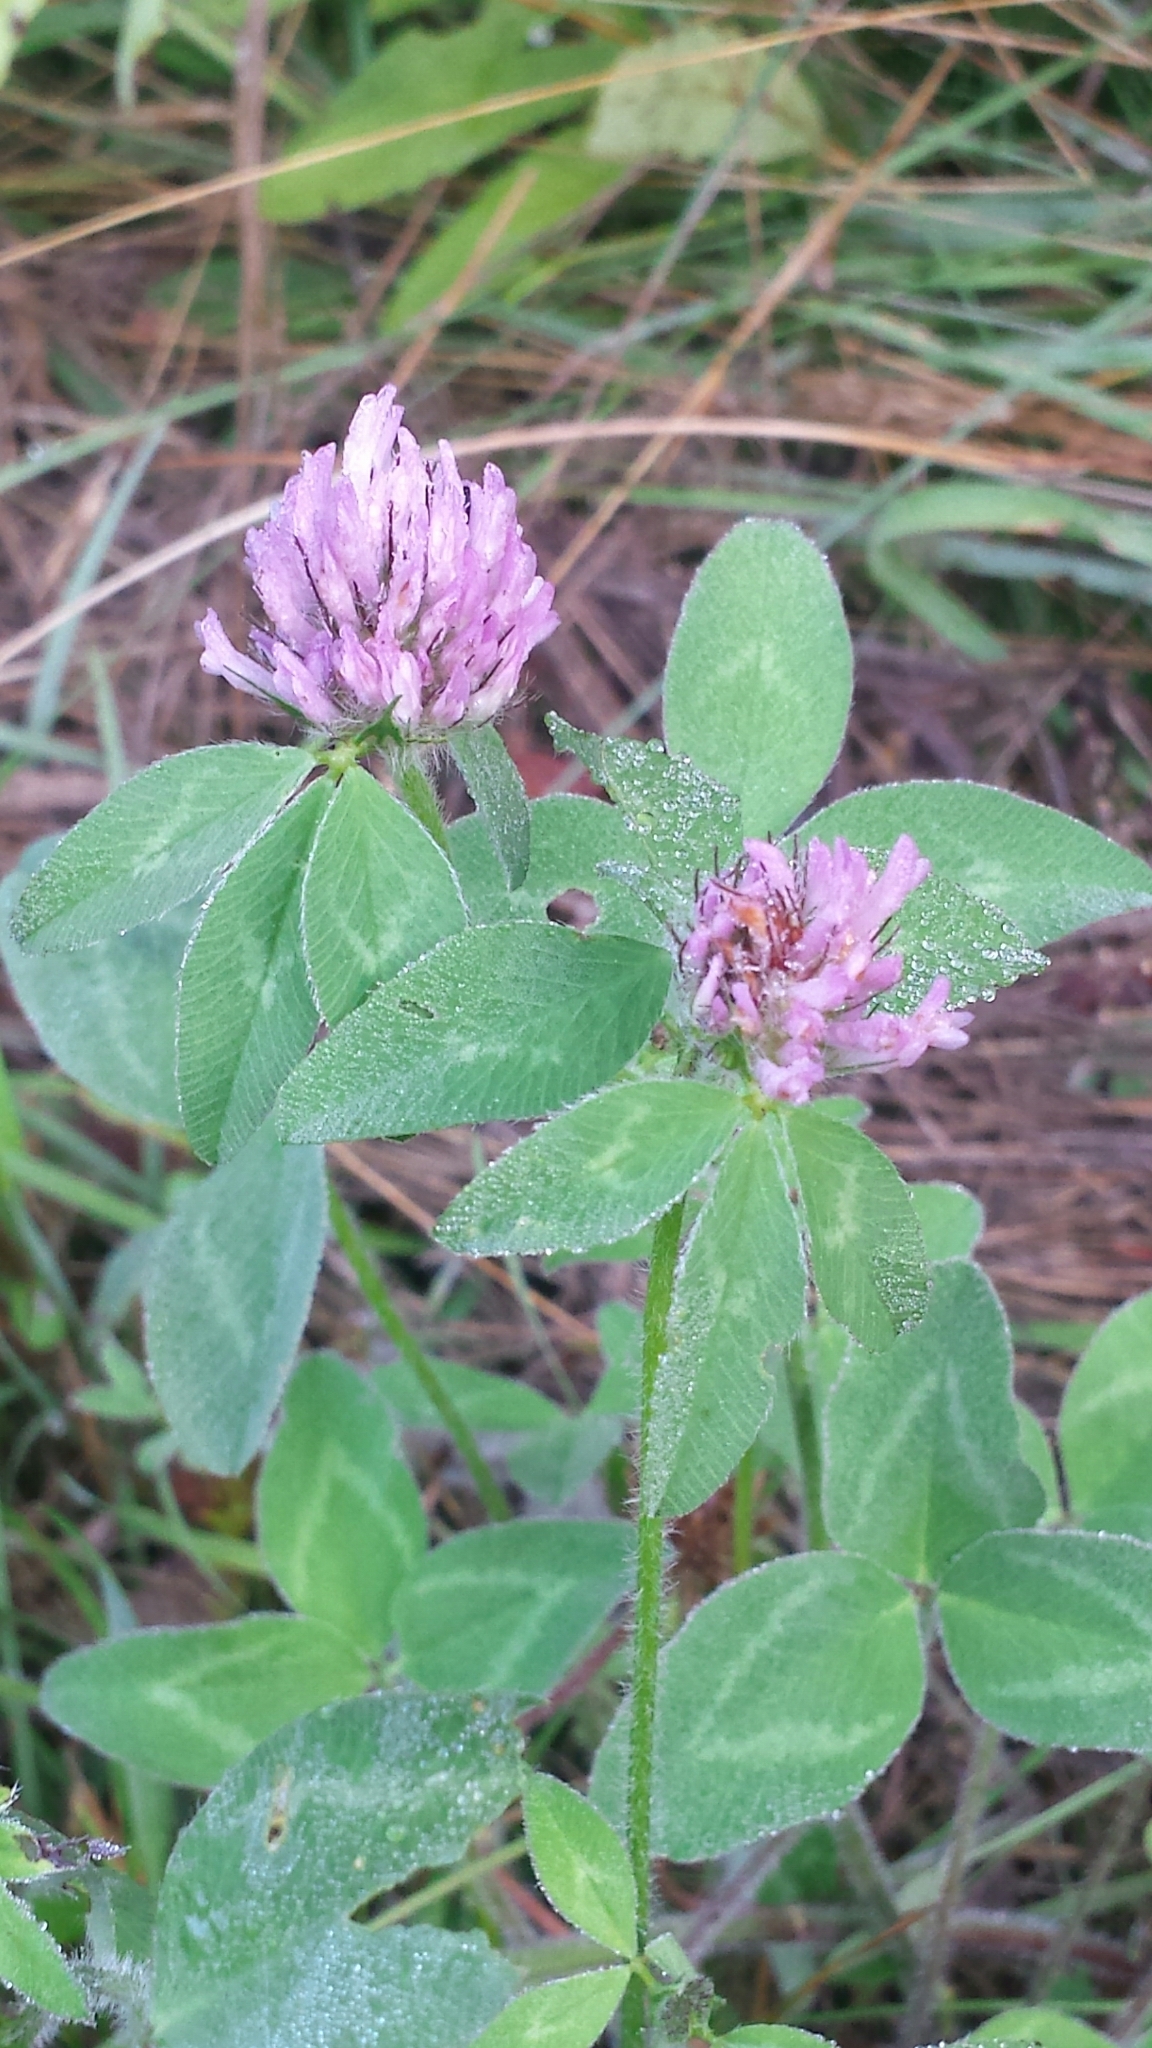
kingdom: Plantae
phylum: Tracheophyta
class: Magnoliopsida
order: Fabales
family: Fabaceae
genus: Trifolium
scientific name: Trifolium pratense
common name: Red clover
